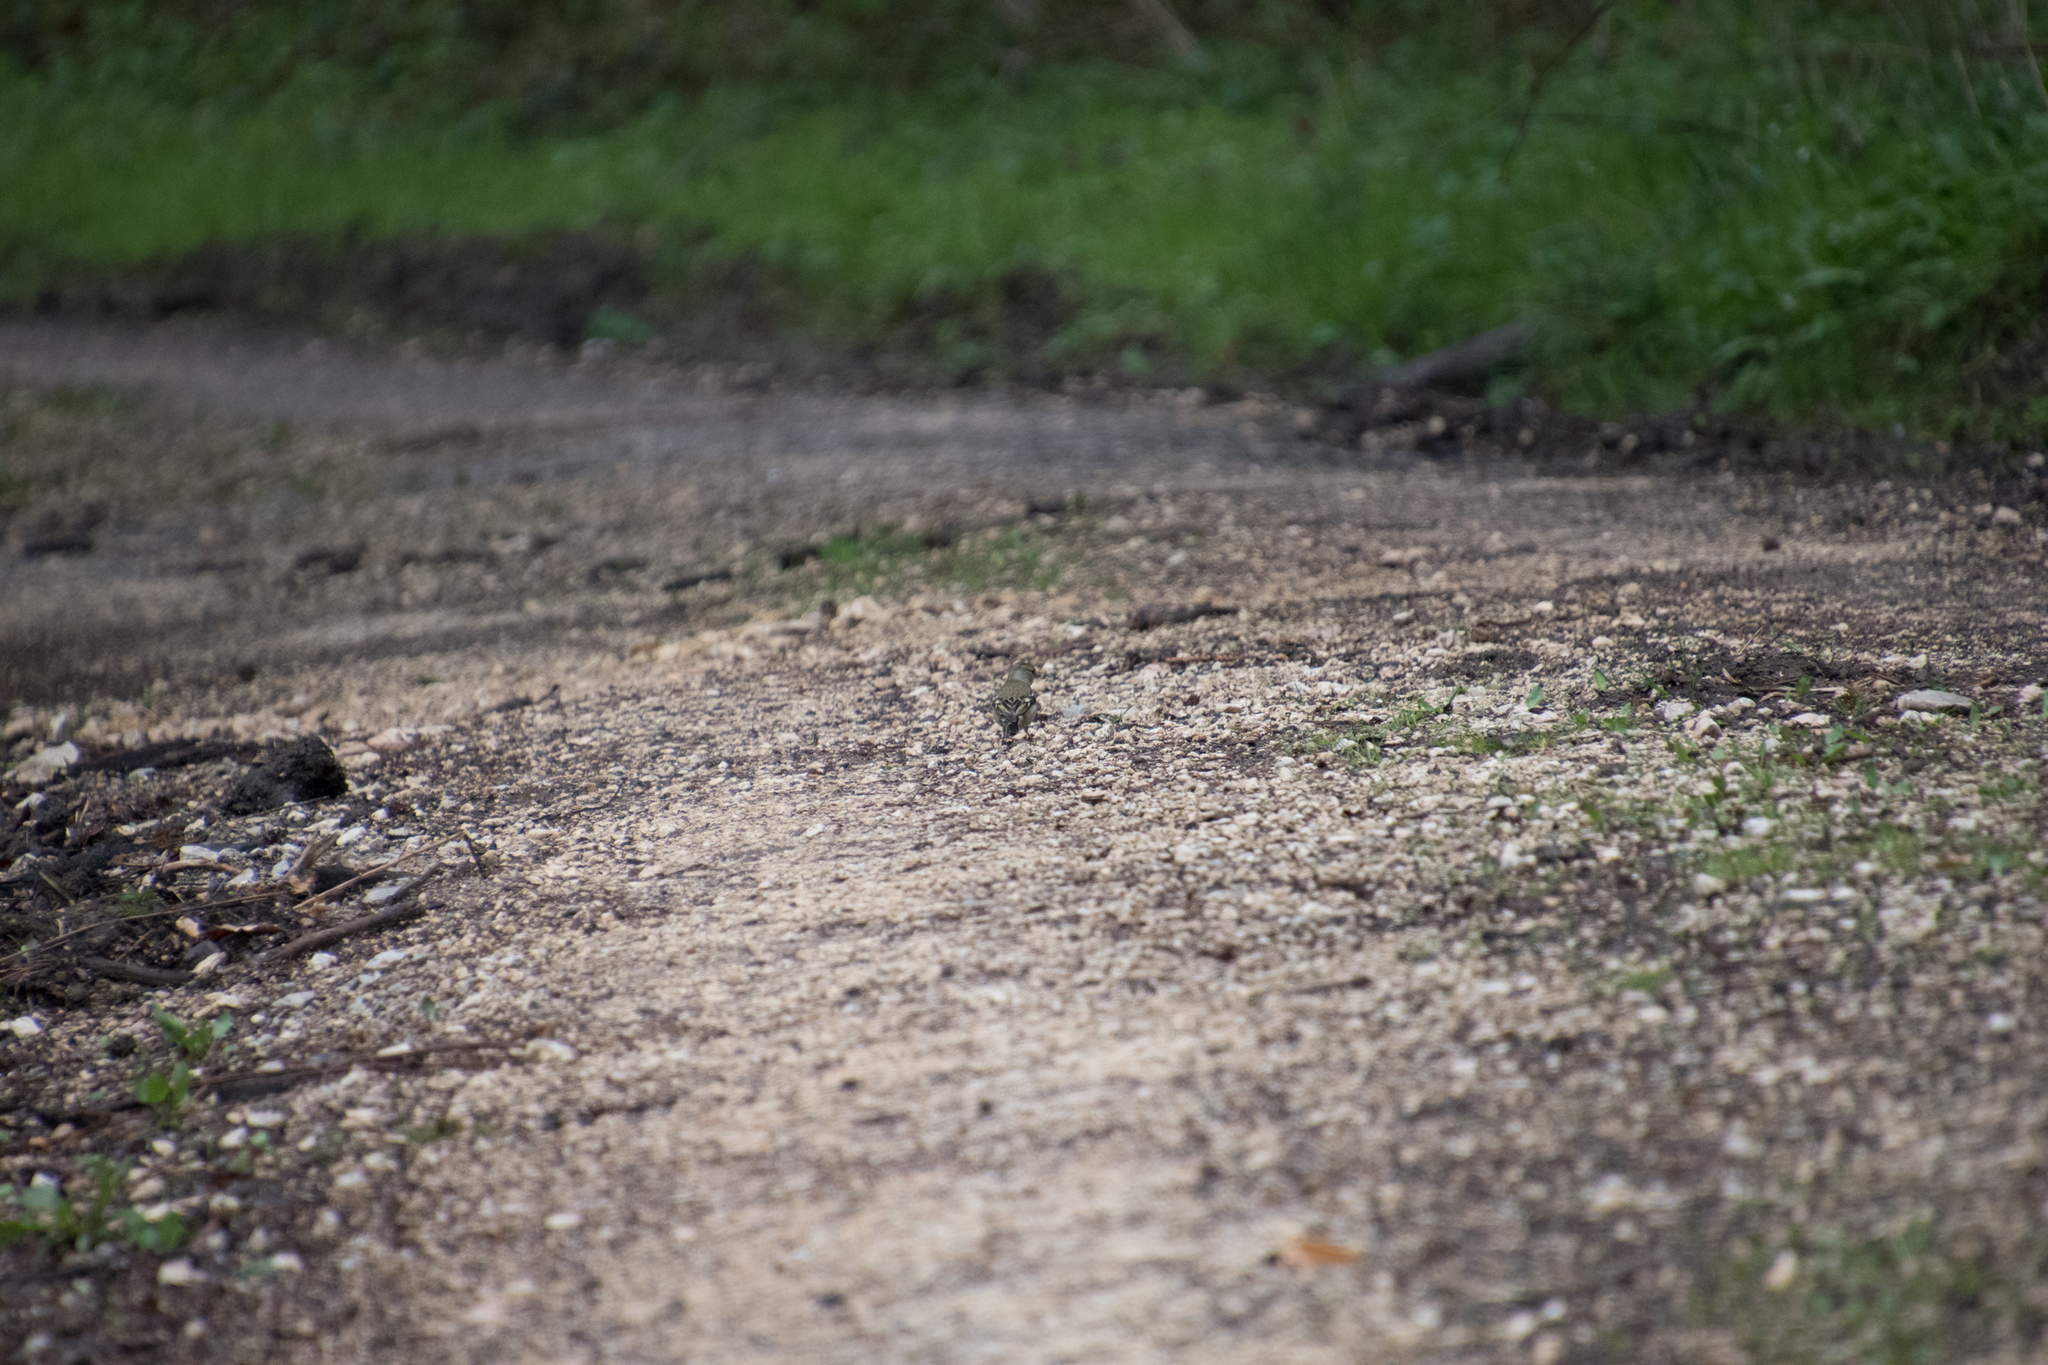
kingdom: Animalia
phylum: Chordata
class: Aves
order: Passeriformes
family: Fringillidae
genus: Fringilla
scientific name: Fringilla coelebs
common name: Common chaffinch
